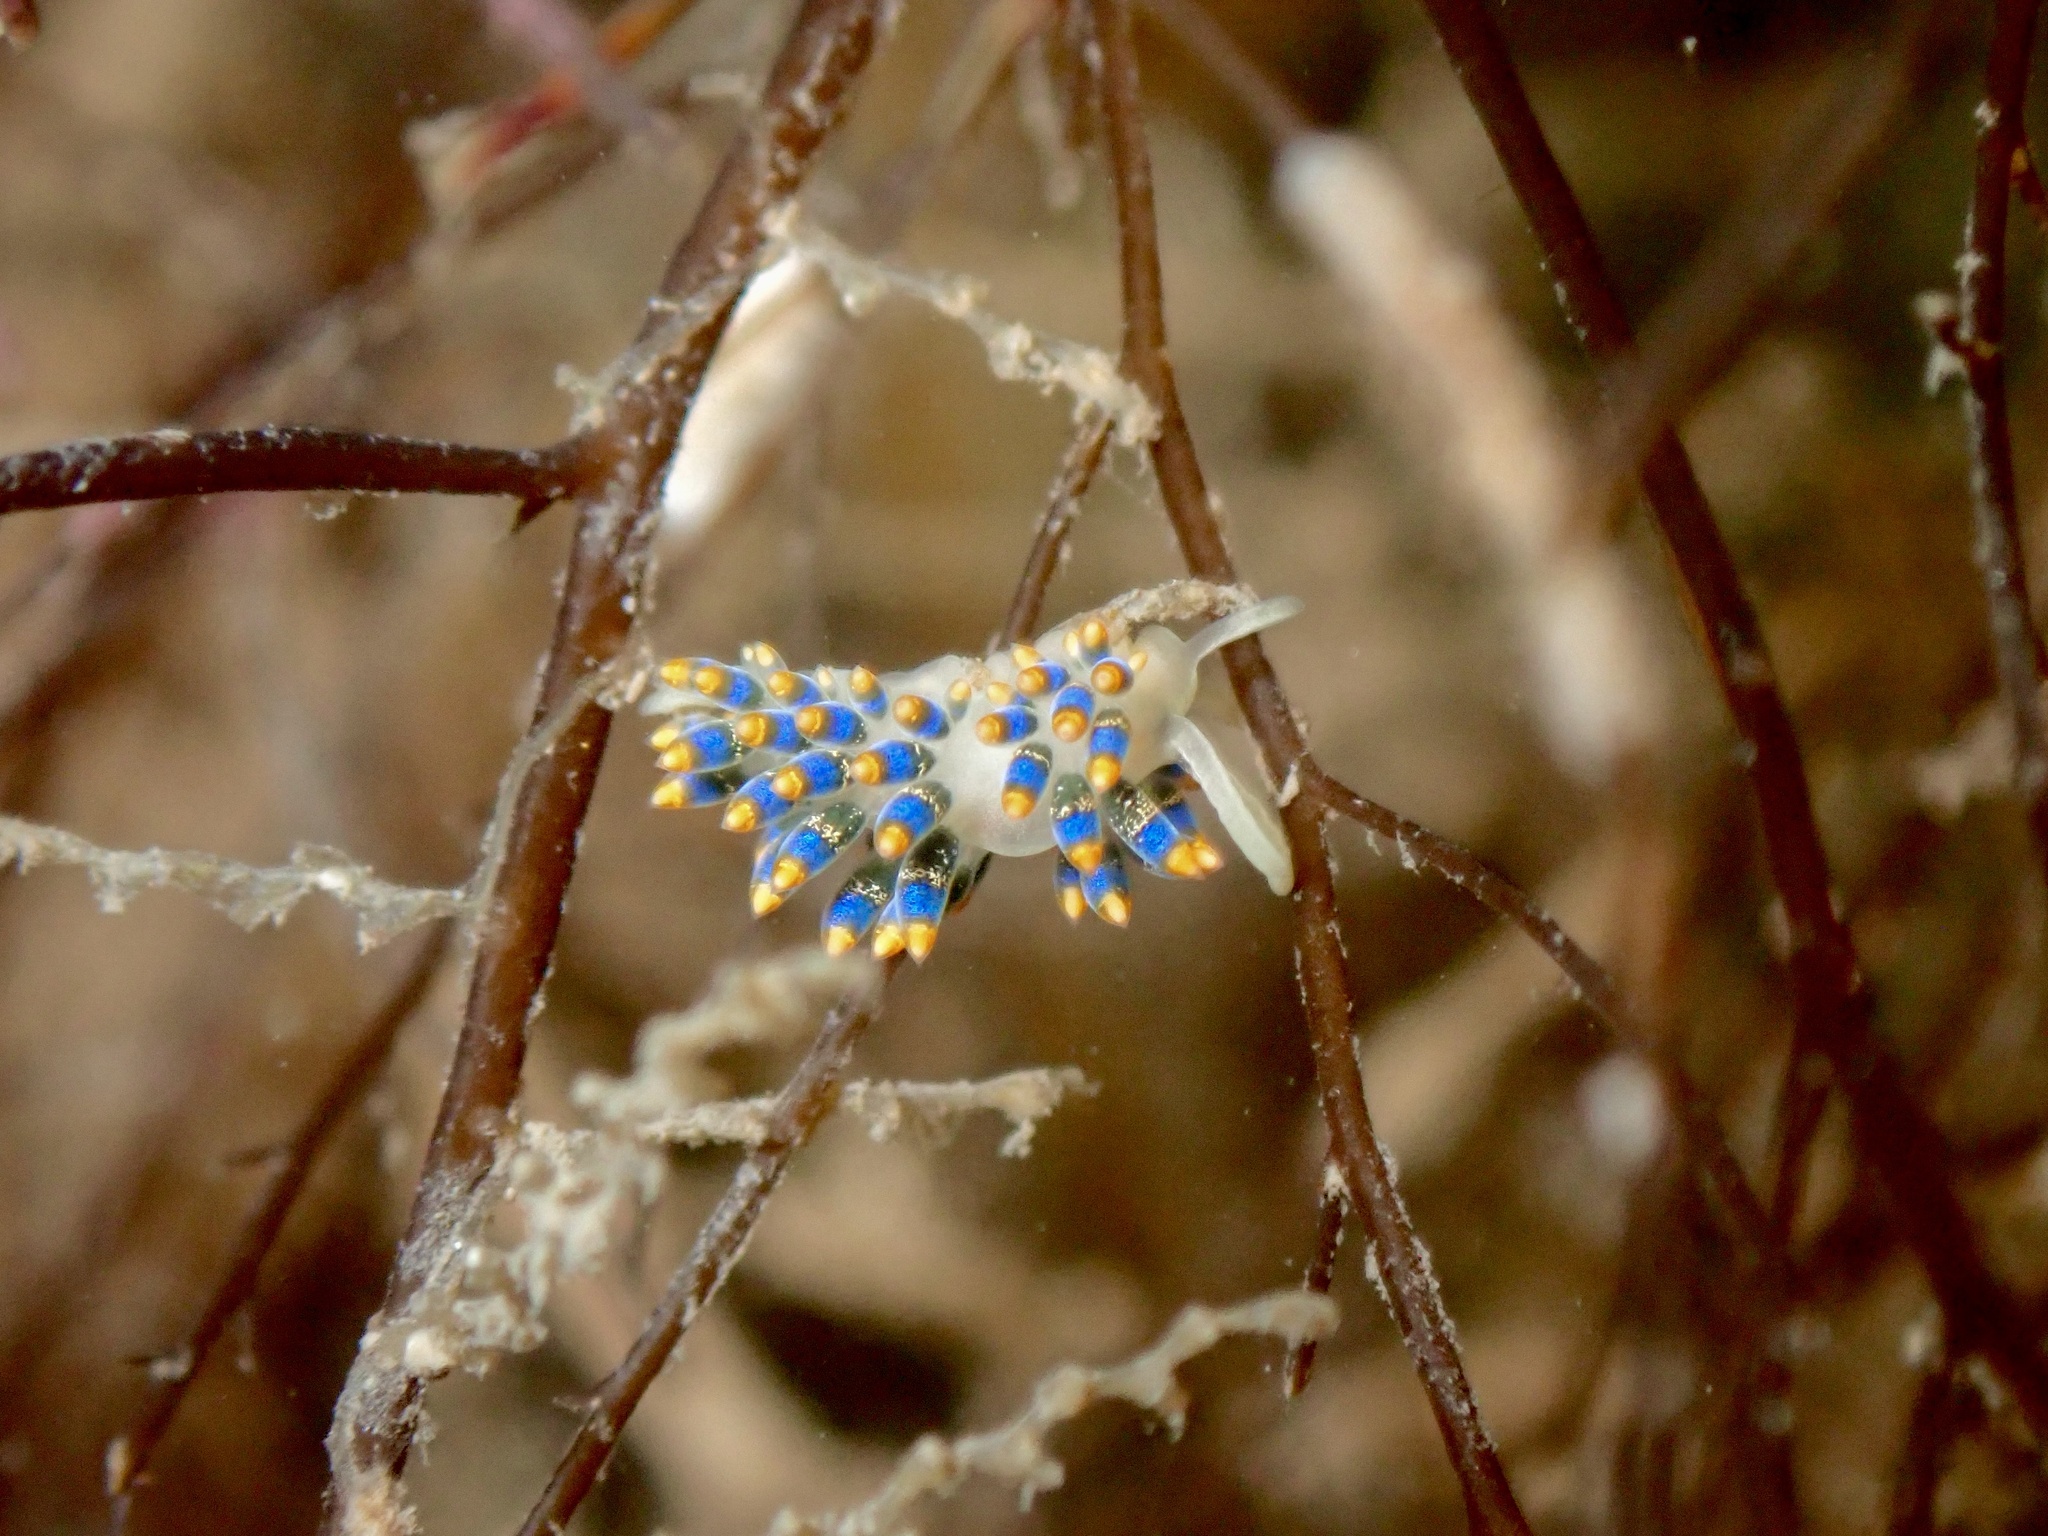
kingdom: Animalia
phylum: Mollusca
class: Gastropoda
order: Nudibranchia
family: Trinchesiidae
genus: Trinchesia
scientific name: Trinchesia cuanensis
